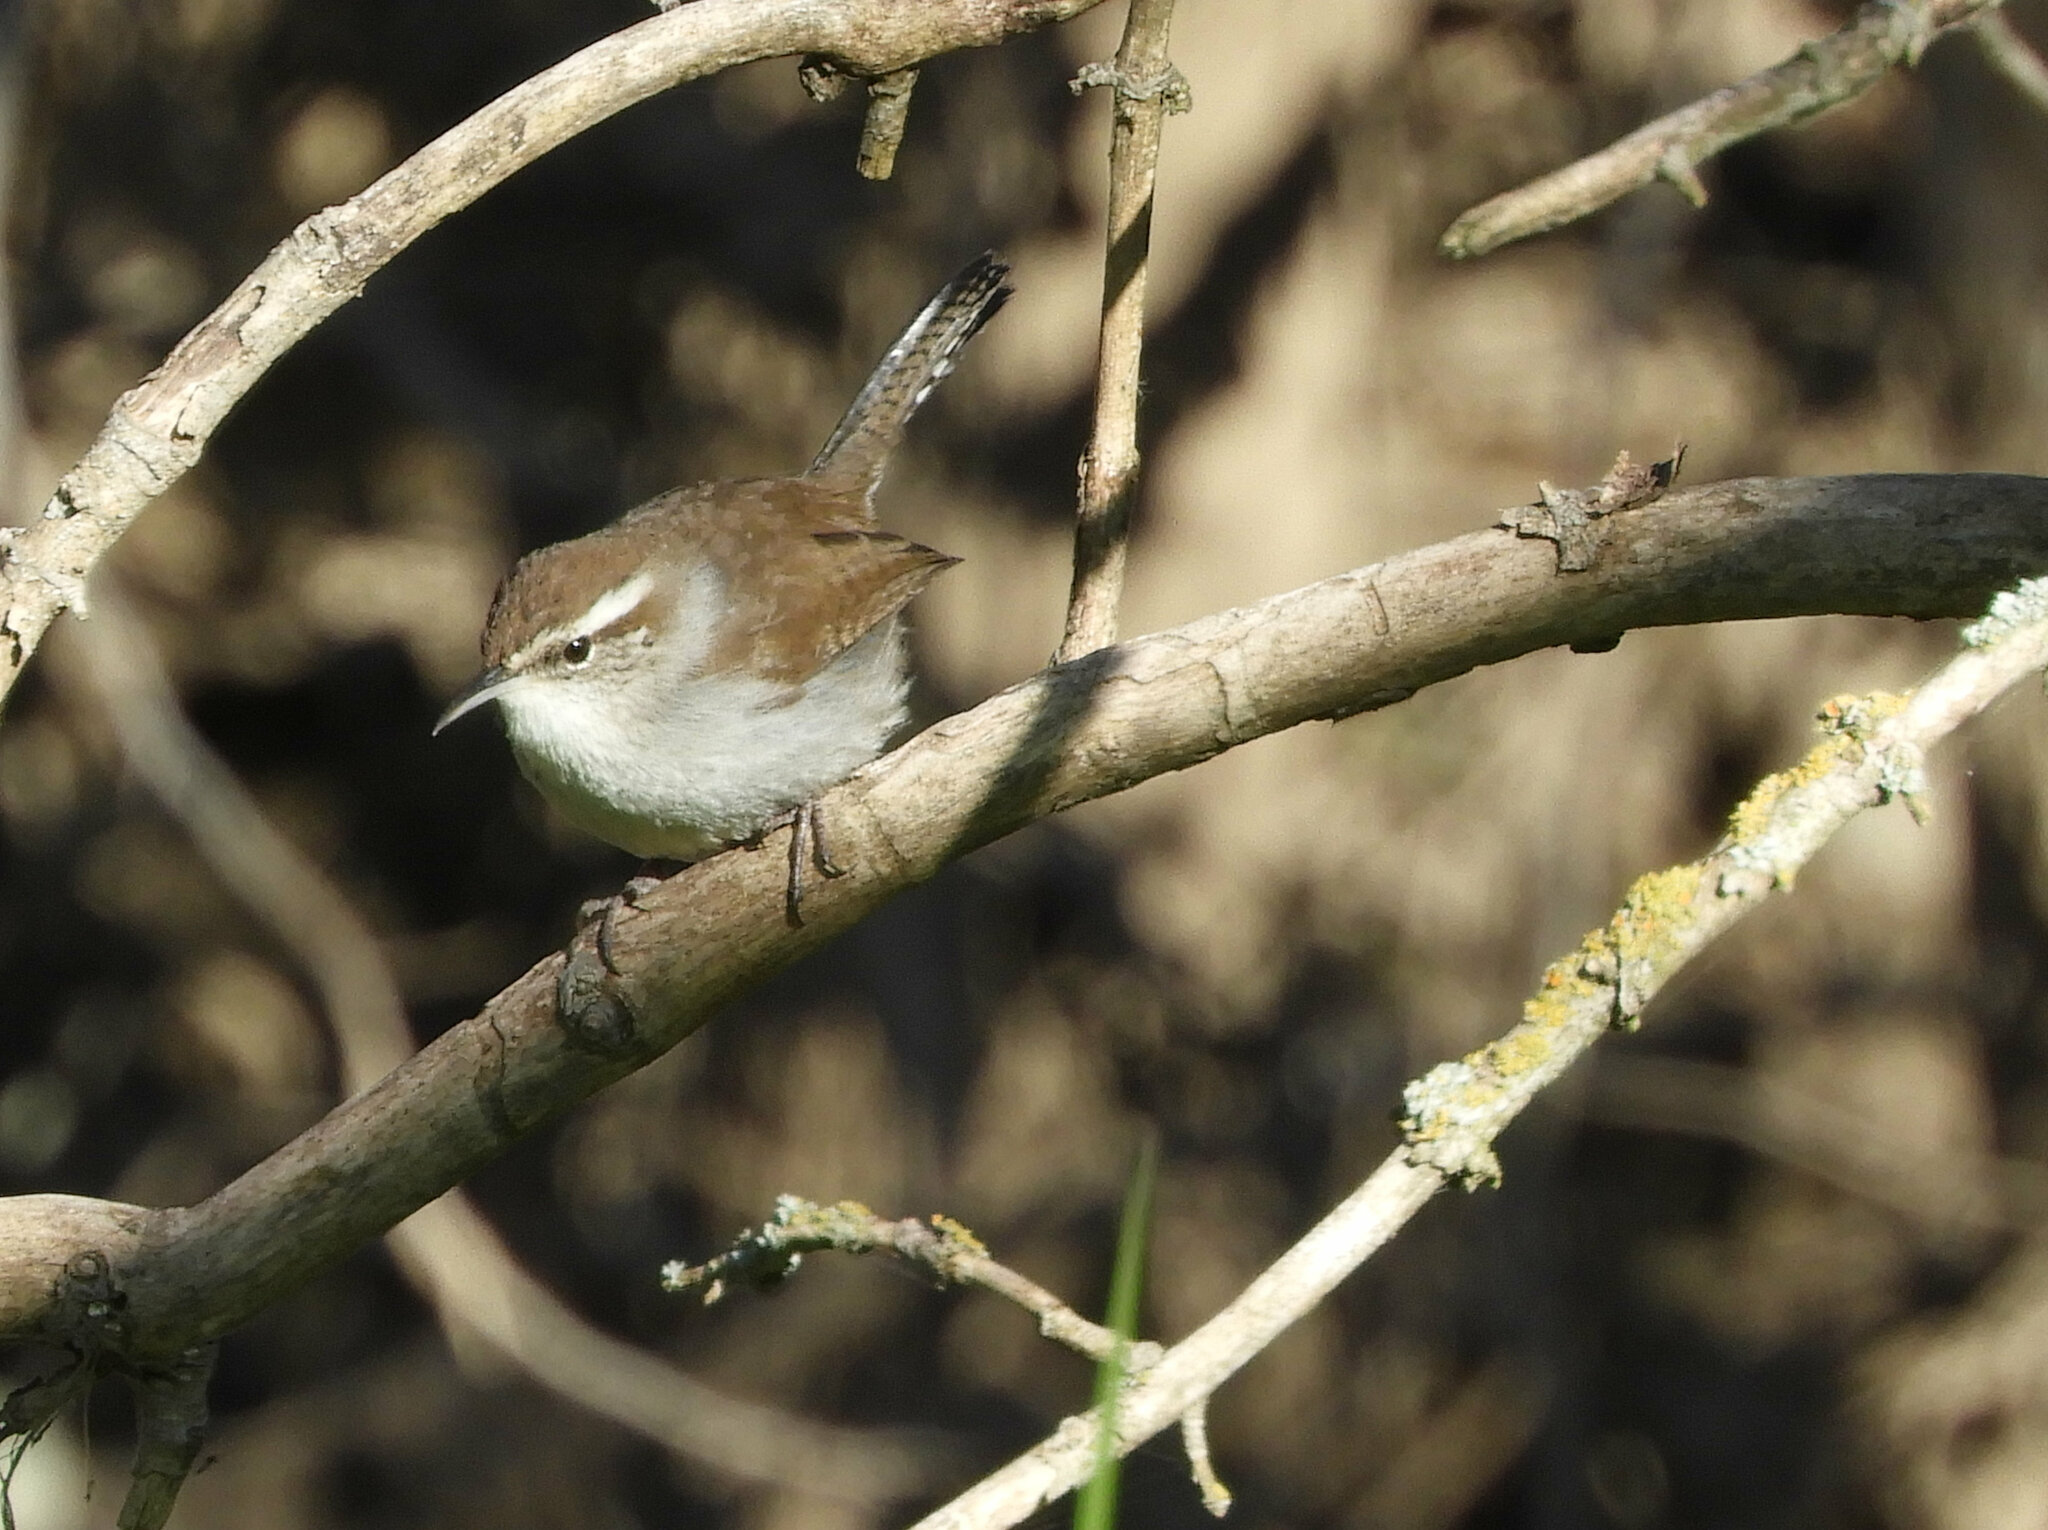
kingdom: Animalia
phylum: Chordata
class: Aves
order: Passeriformes
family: Troglodytidae
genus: Thryomanes
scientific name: Thryomanes bewickii
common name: Bewick's wren
